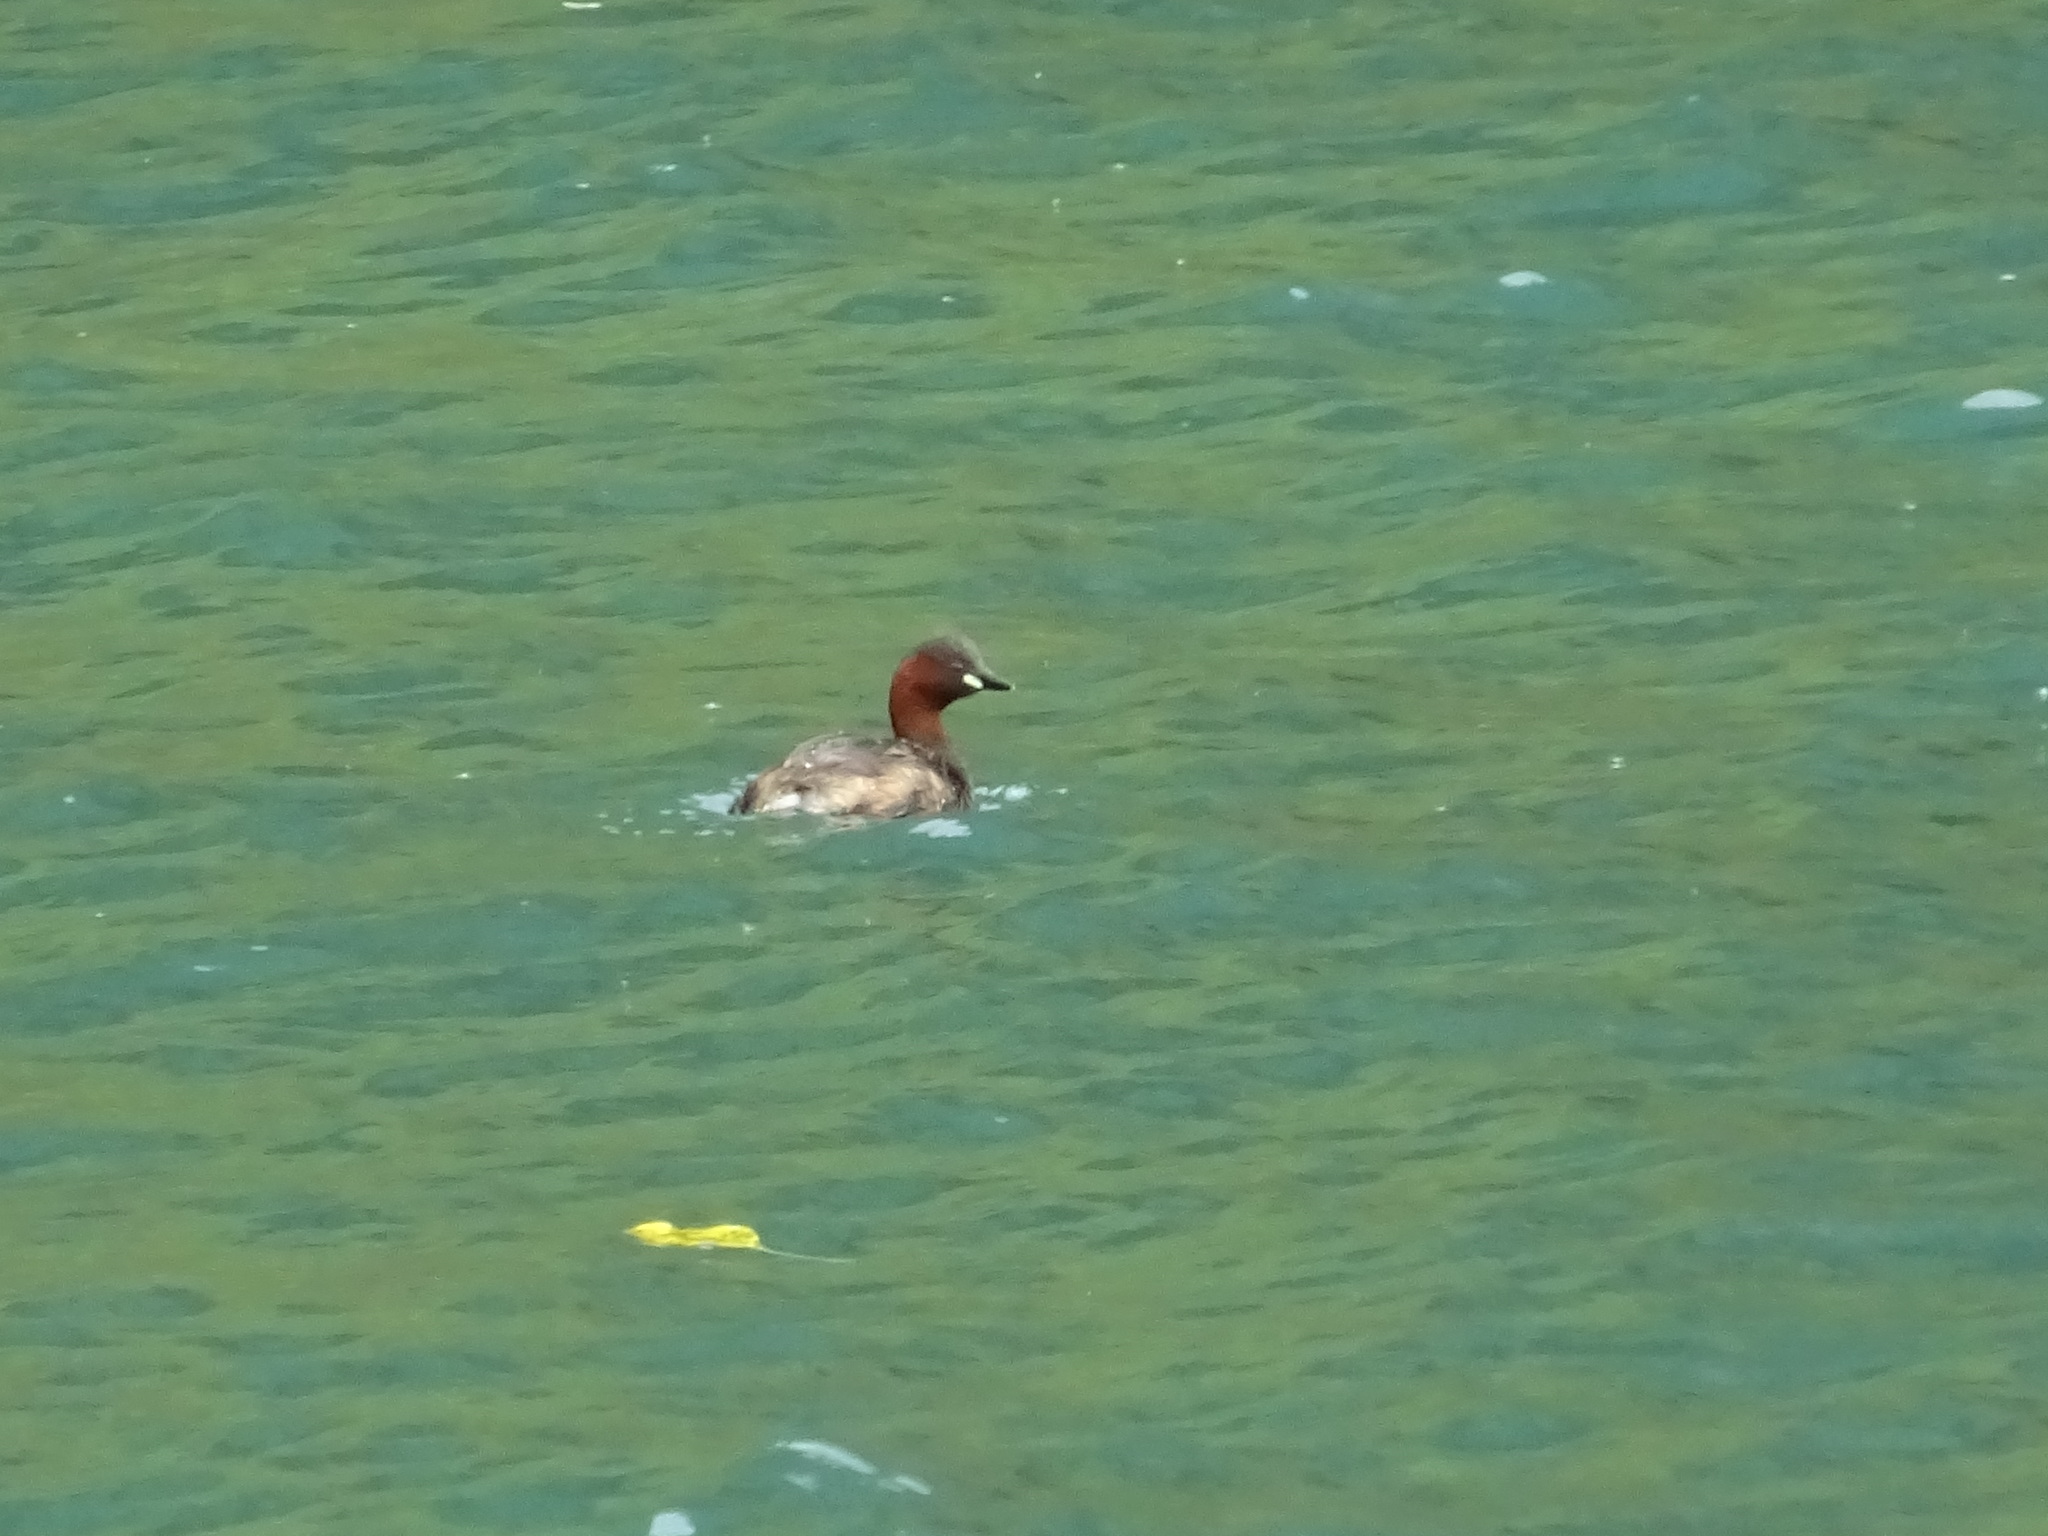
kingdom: Animalia
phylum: Chordata
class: Aves
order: Podicipediformes
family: Podicipedidae
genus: Tachybaptus
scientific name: Tachybaptus ruficollis
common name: Little grebe
